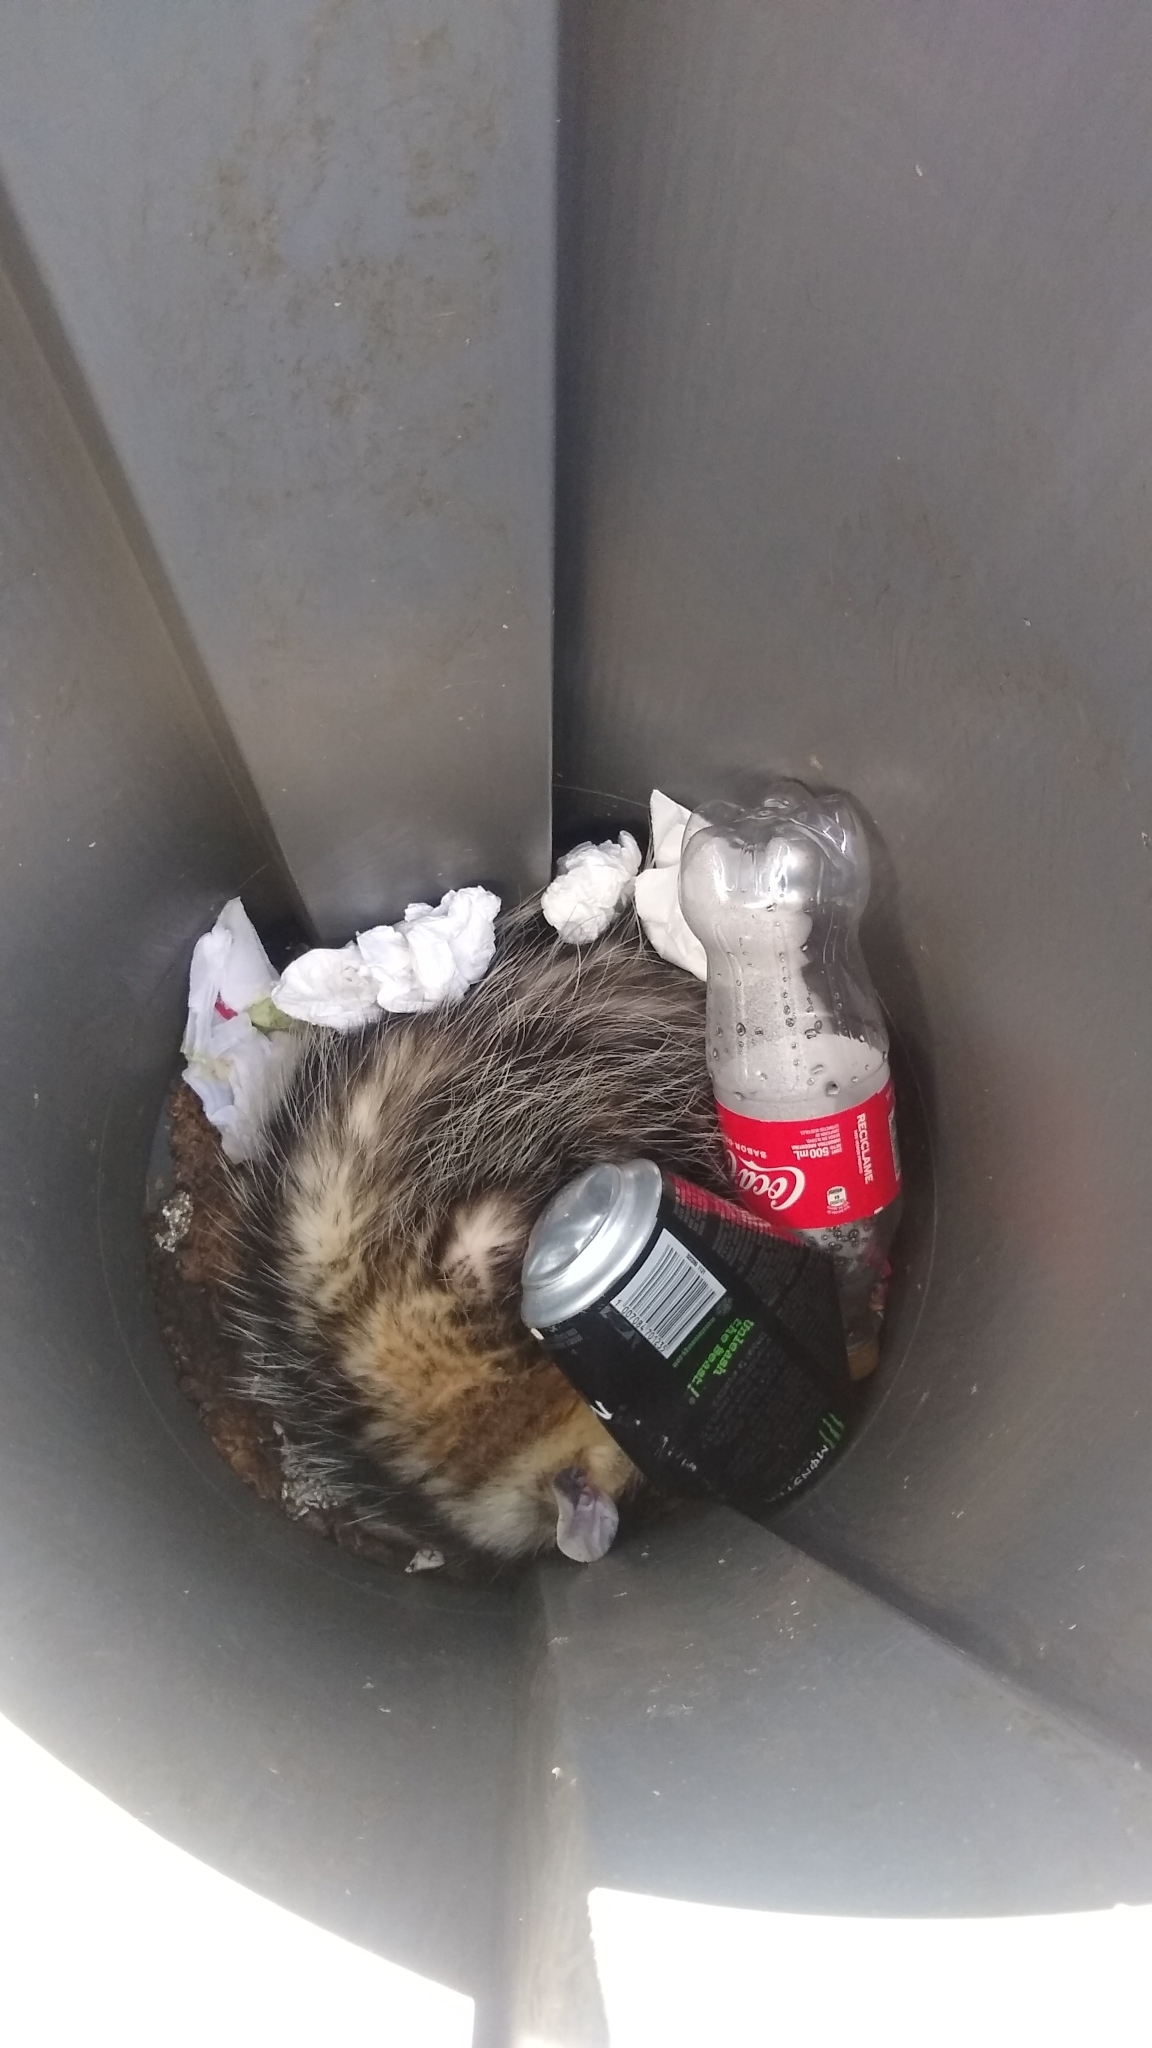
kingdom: Animalia
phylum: Chordata
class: Mammalia
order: Didelphimorphia
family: Didelphidae
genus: Didelphis
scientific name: Didelphis albiventris
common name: White-eared opossum
